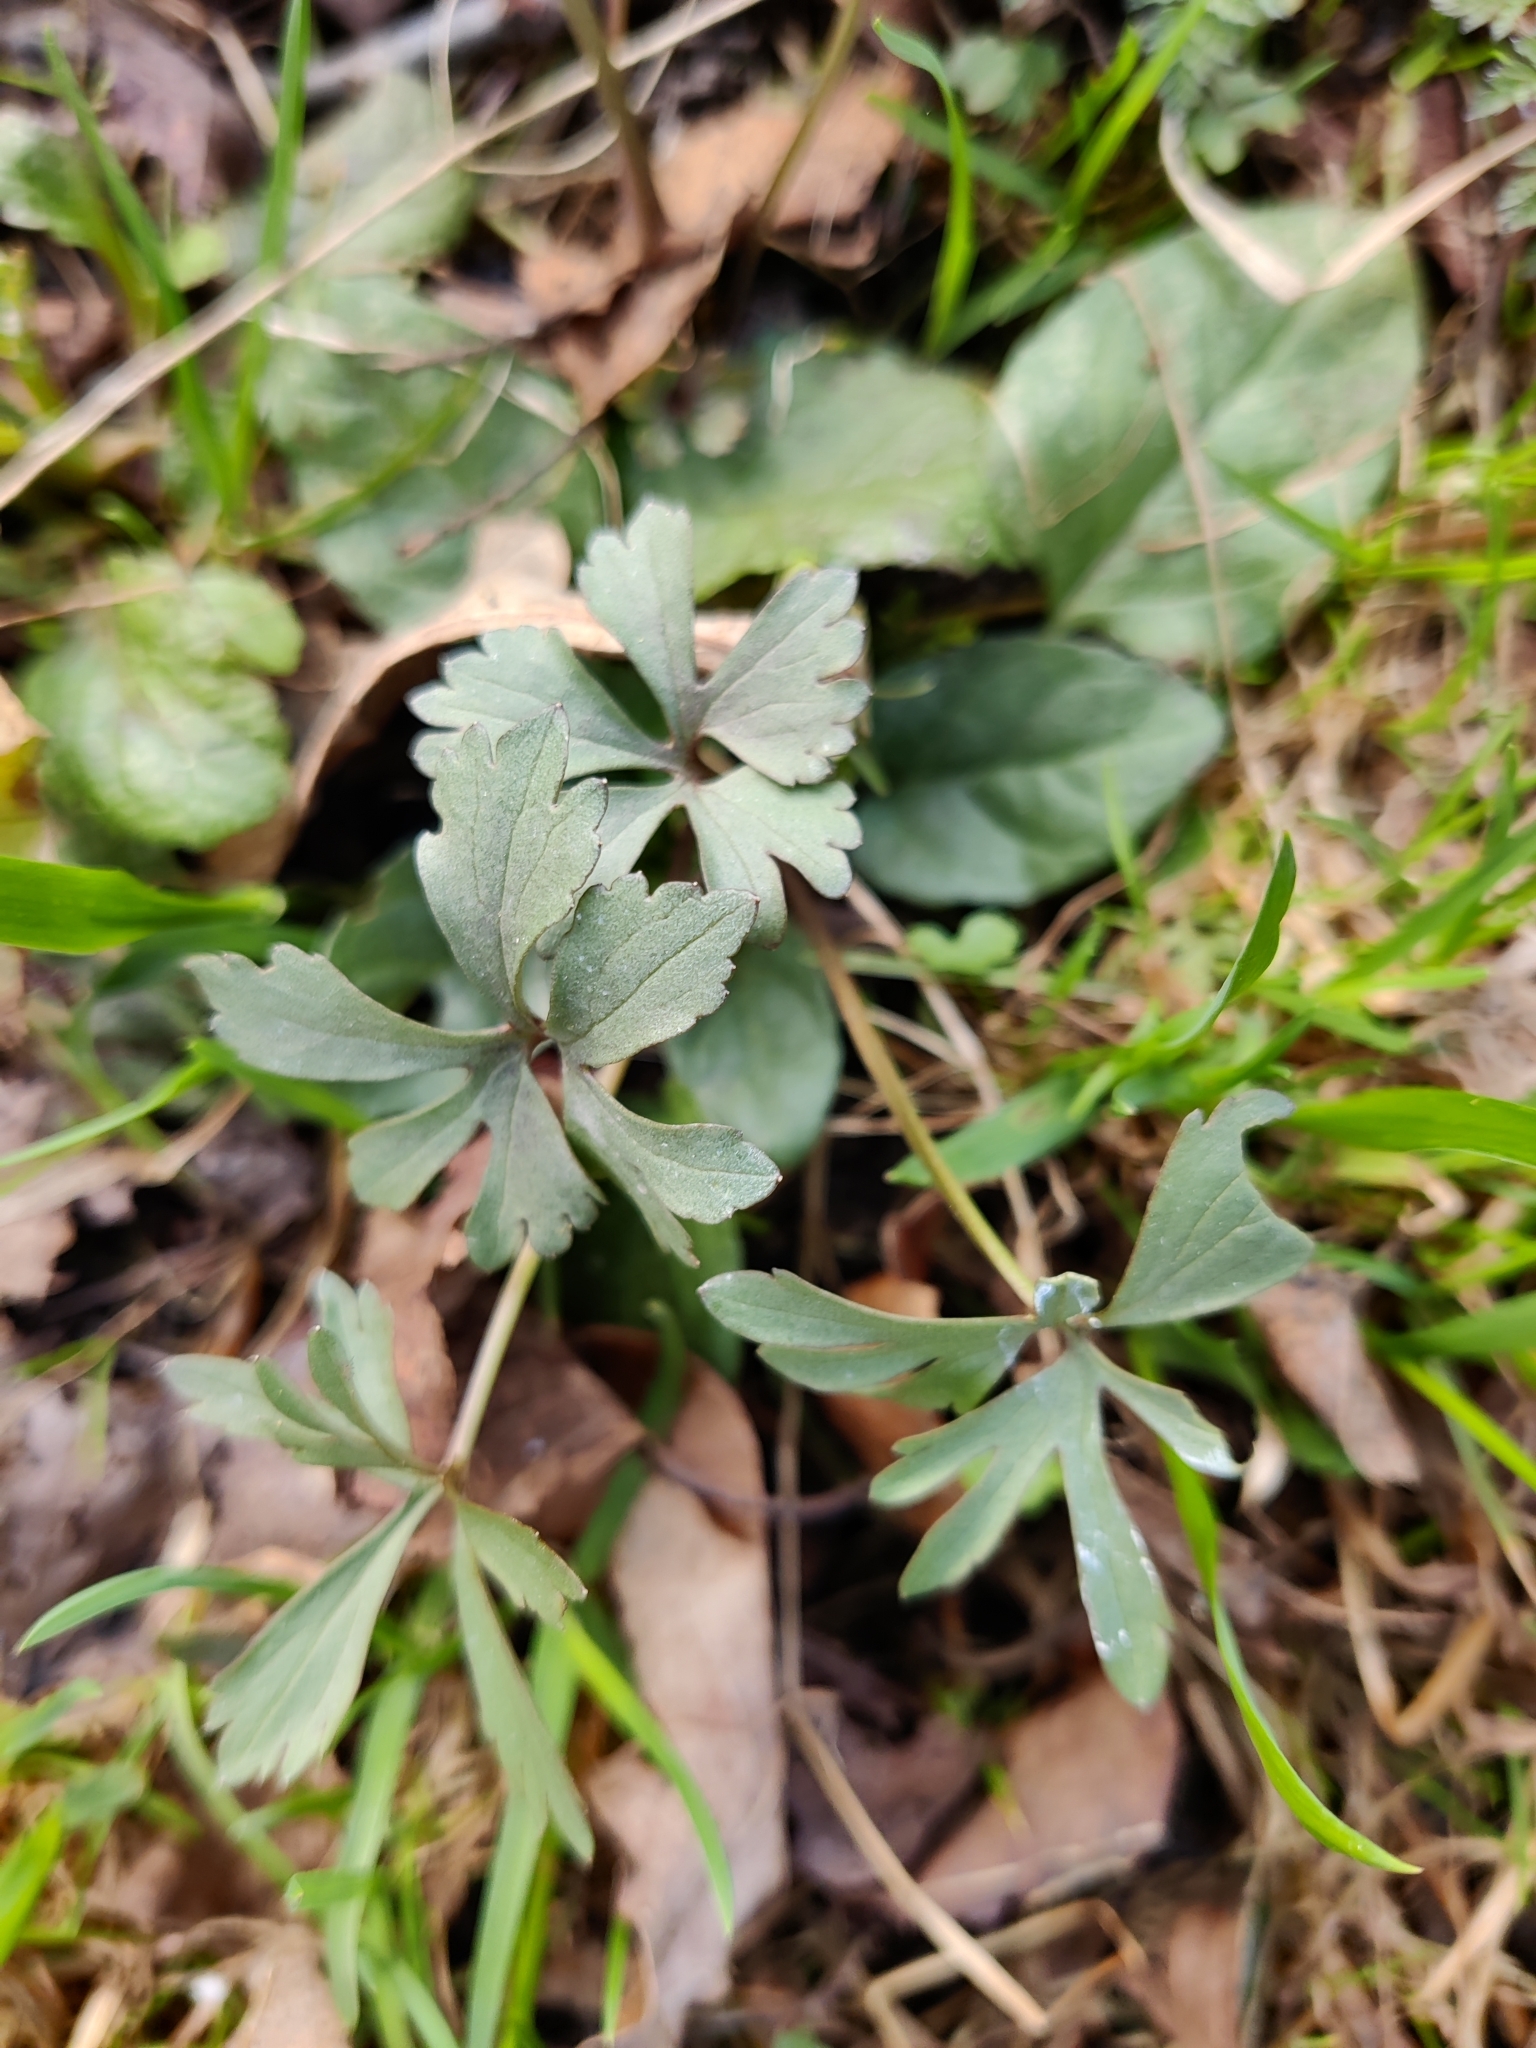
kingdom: Plantae
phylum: Tracheophyta
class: Magnoliopsida
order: Ranunculales
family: Ranunculaceae
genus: Ranunculus
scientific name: Ranunculus auricomus
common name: Goldilocks buttercup
